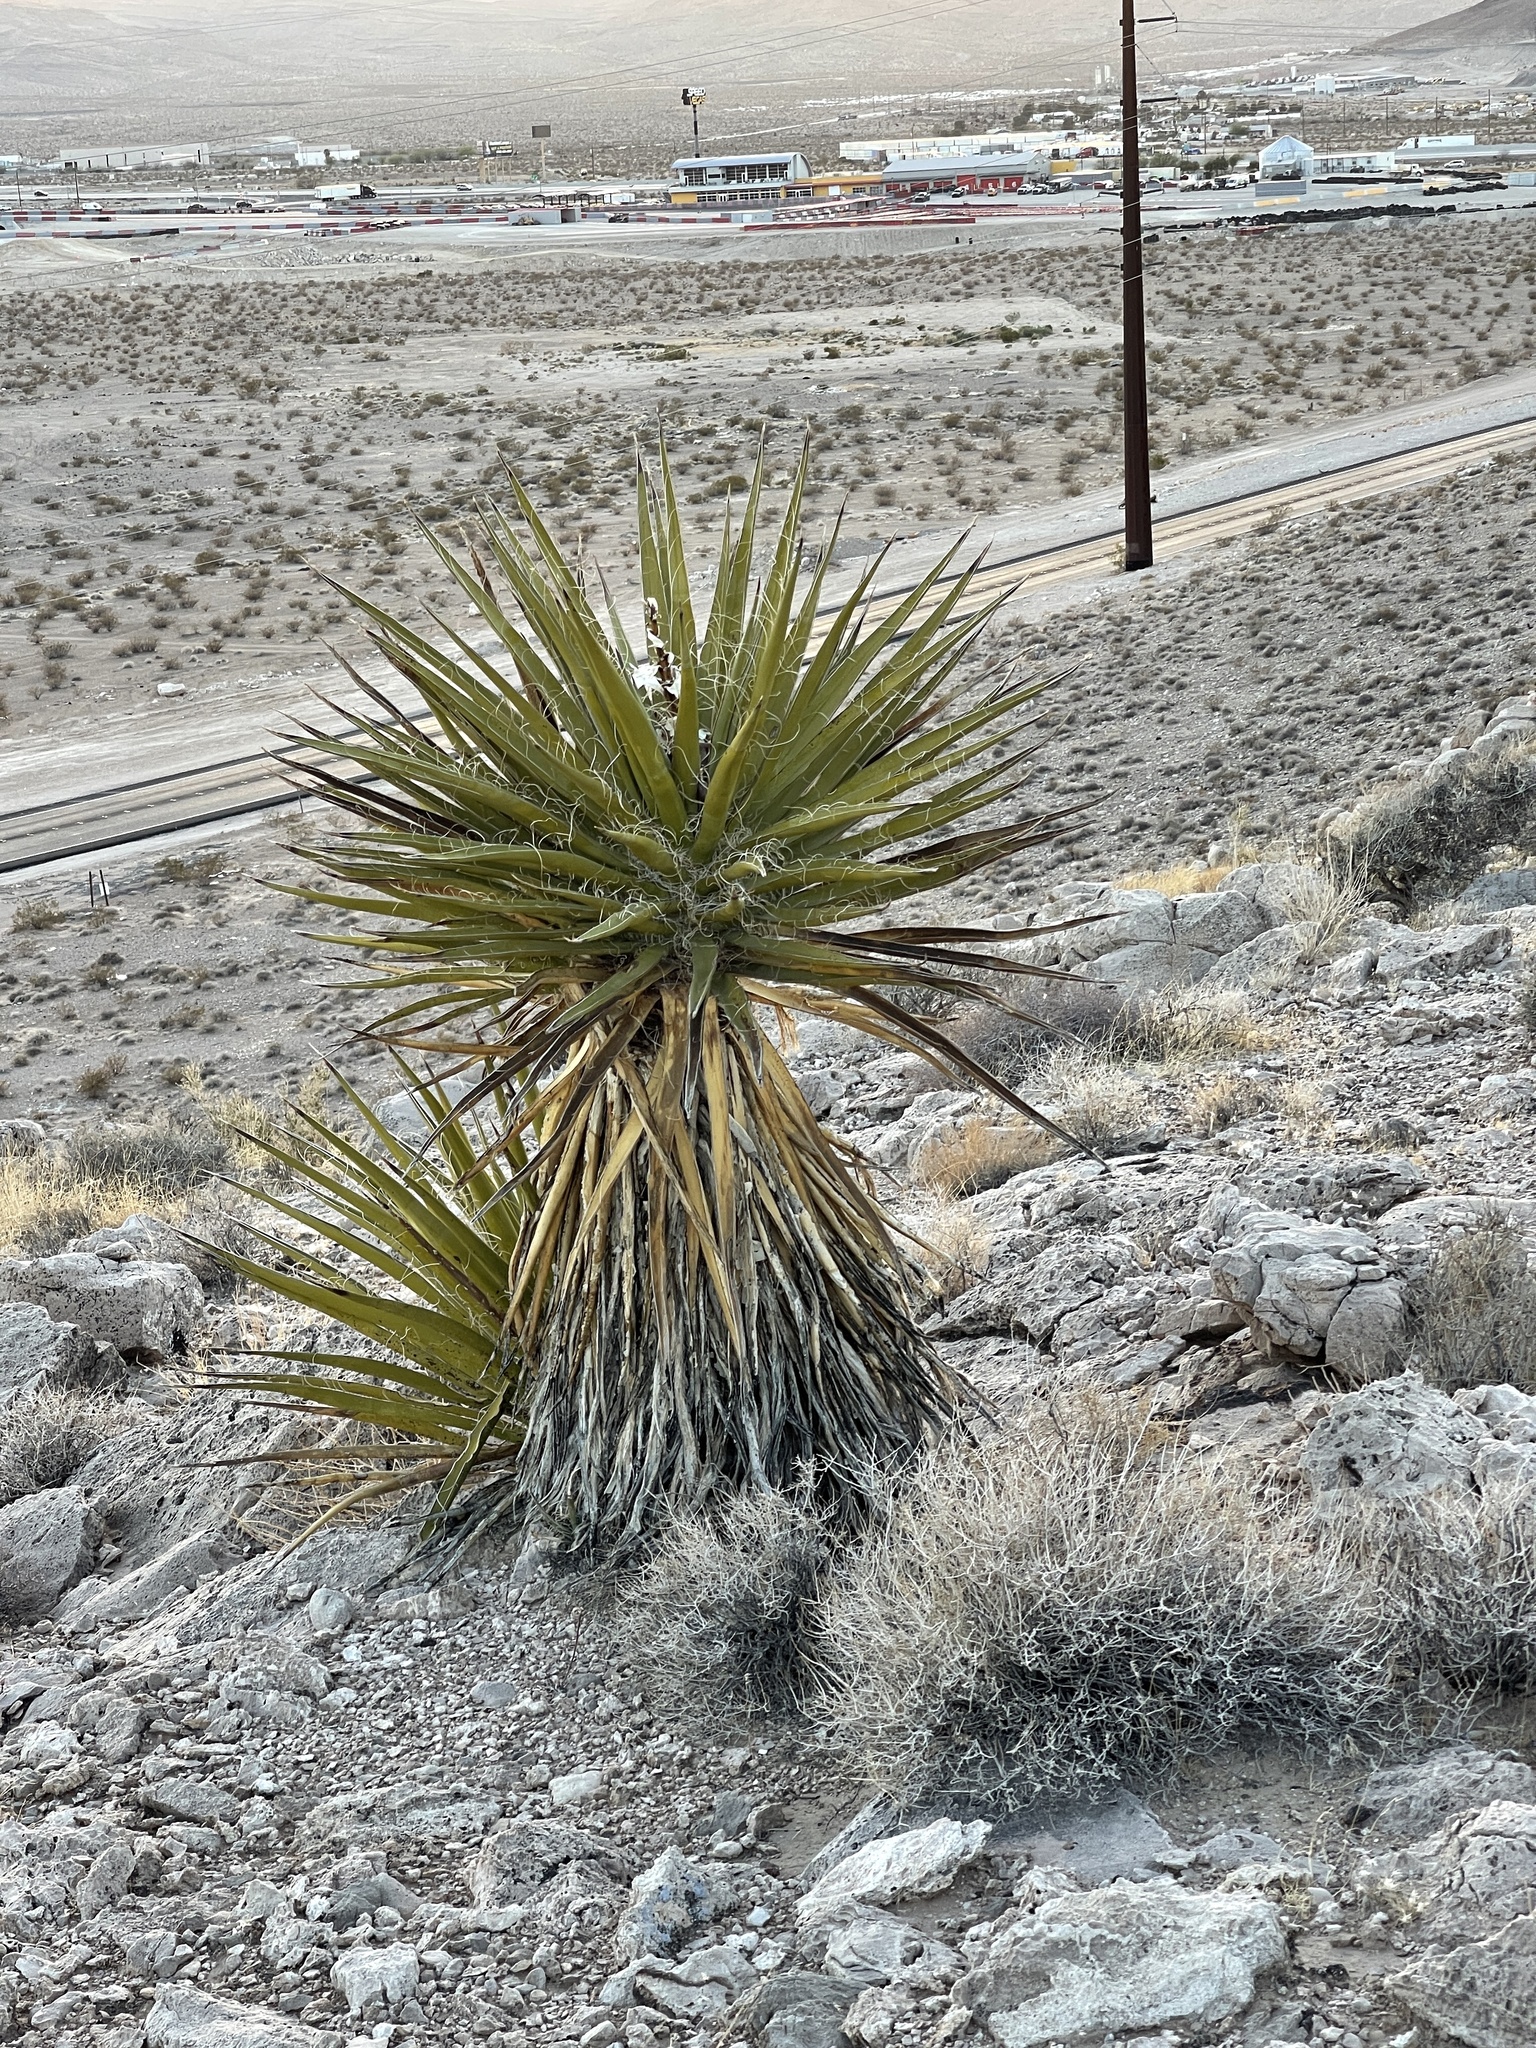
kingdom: Plantae
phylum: Tracheophyta
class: Liliopsida
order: Asparagales
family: Asparagaceae
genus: Yucca
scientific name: Yucca schidigera
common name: Mojave yucca
